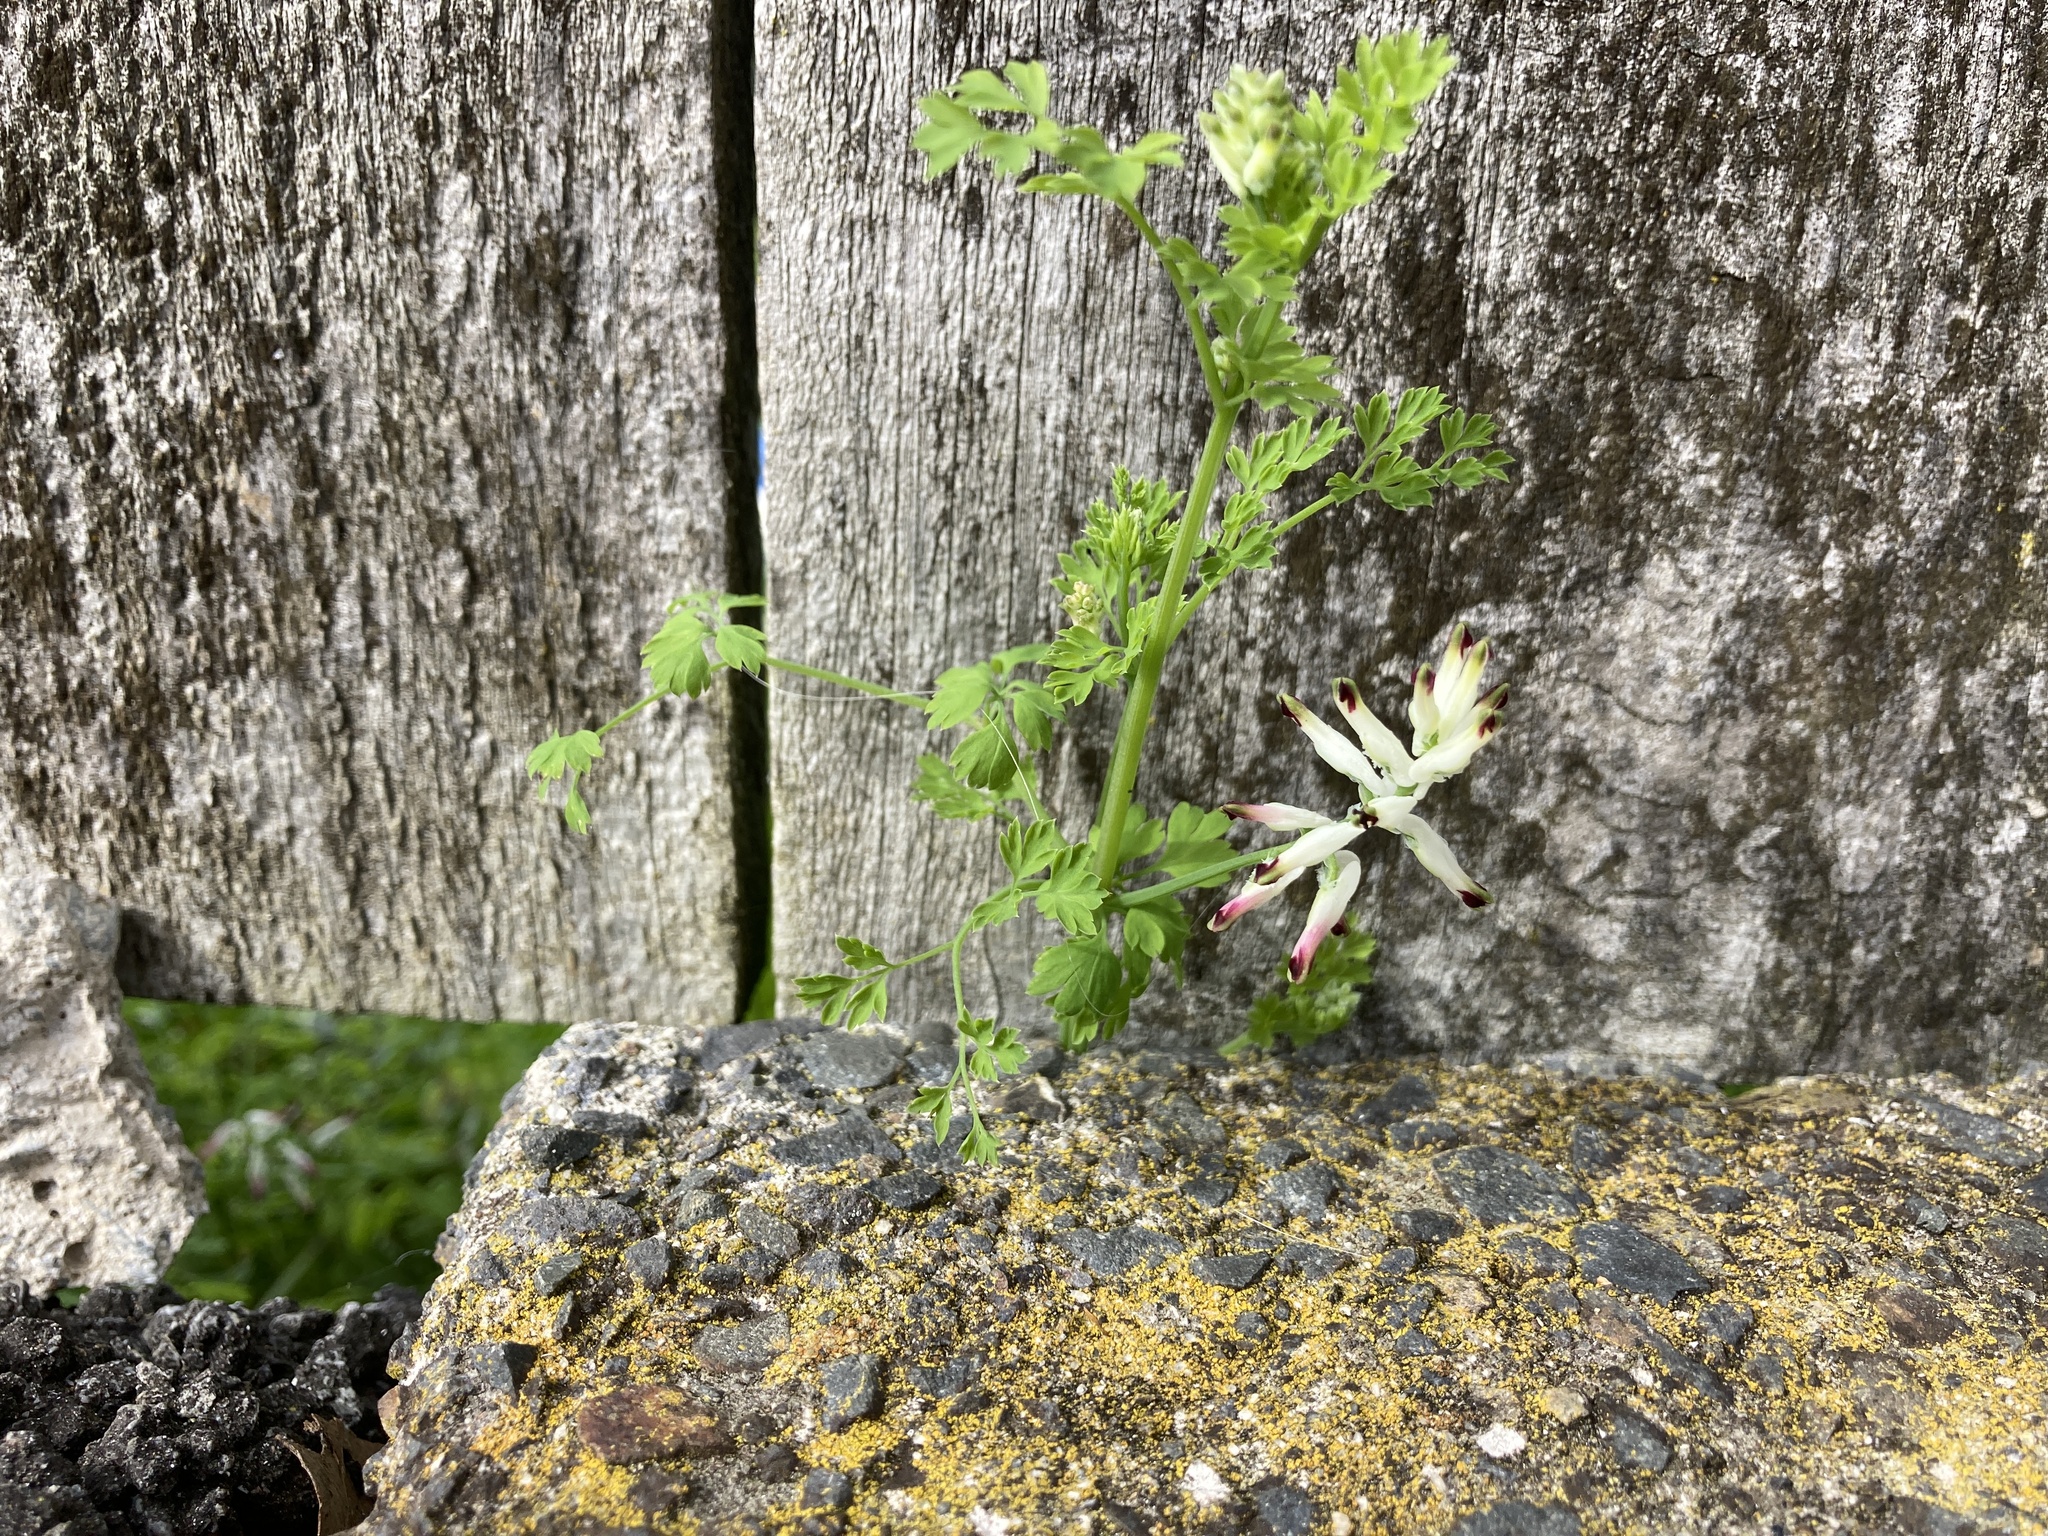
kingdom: Plantae
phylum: Tracheophyta
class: Magnoliopsida
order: Ranunculales
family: Papaveraceae
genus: Fumaria
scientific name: Fumaria capreolata
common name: White ramping-fumitory
